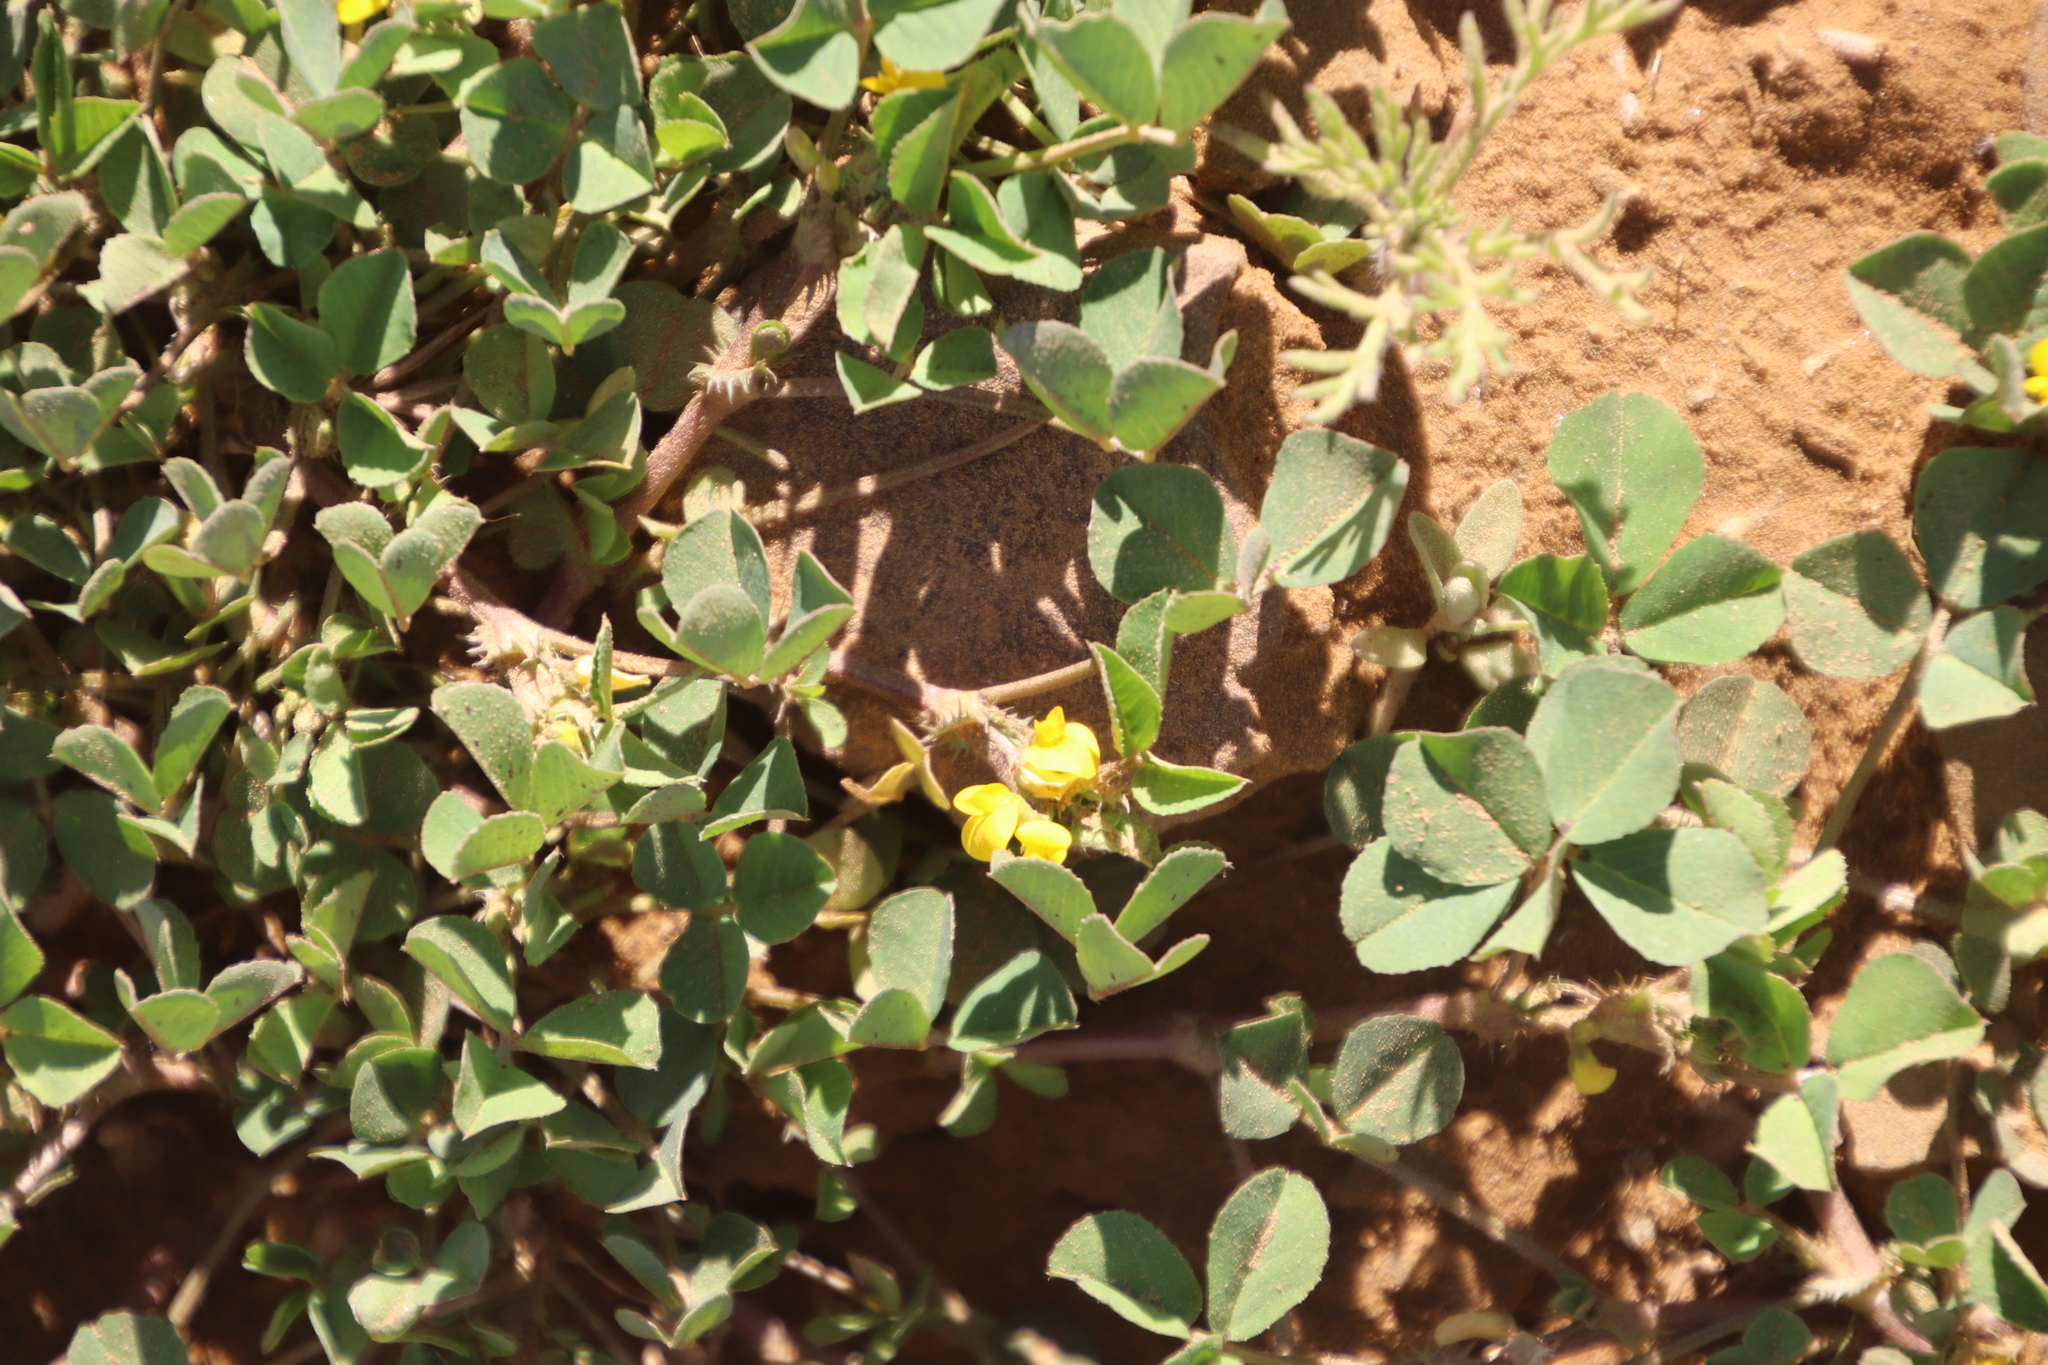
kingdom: Plantae
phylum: Tracheophyta
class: Magnoliopsida
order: Fabales
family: Fabaceae
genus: Medicago
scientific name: Medicago polymorpha
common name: Burclover
